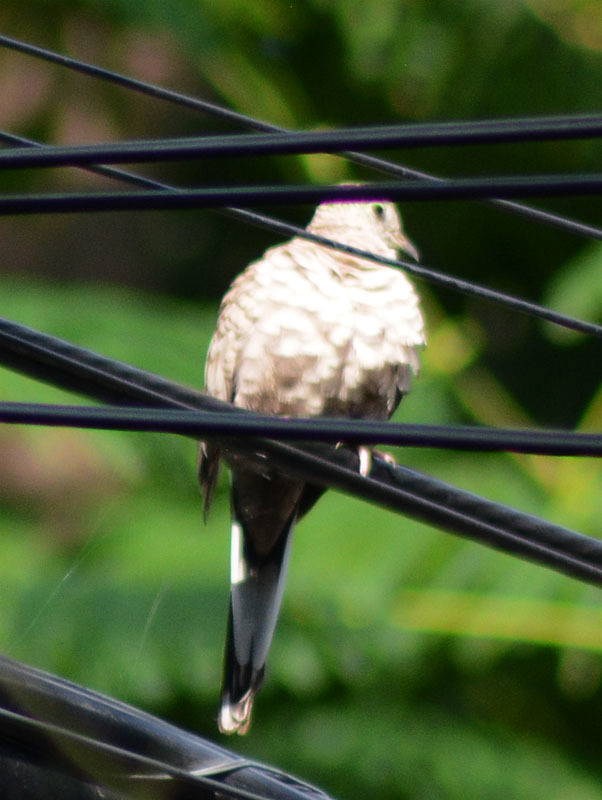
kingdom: Animalia
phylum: Chordata
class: Aves
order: Columbiformes
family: Columbidae
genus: Columbina
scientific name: Columbina inca
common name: Inca dove
